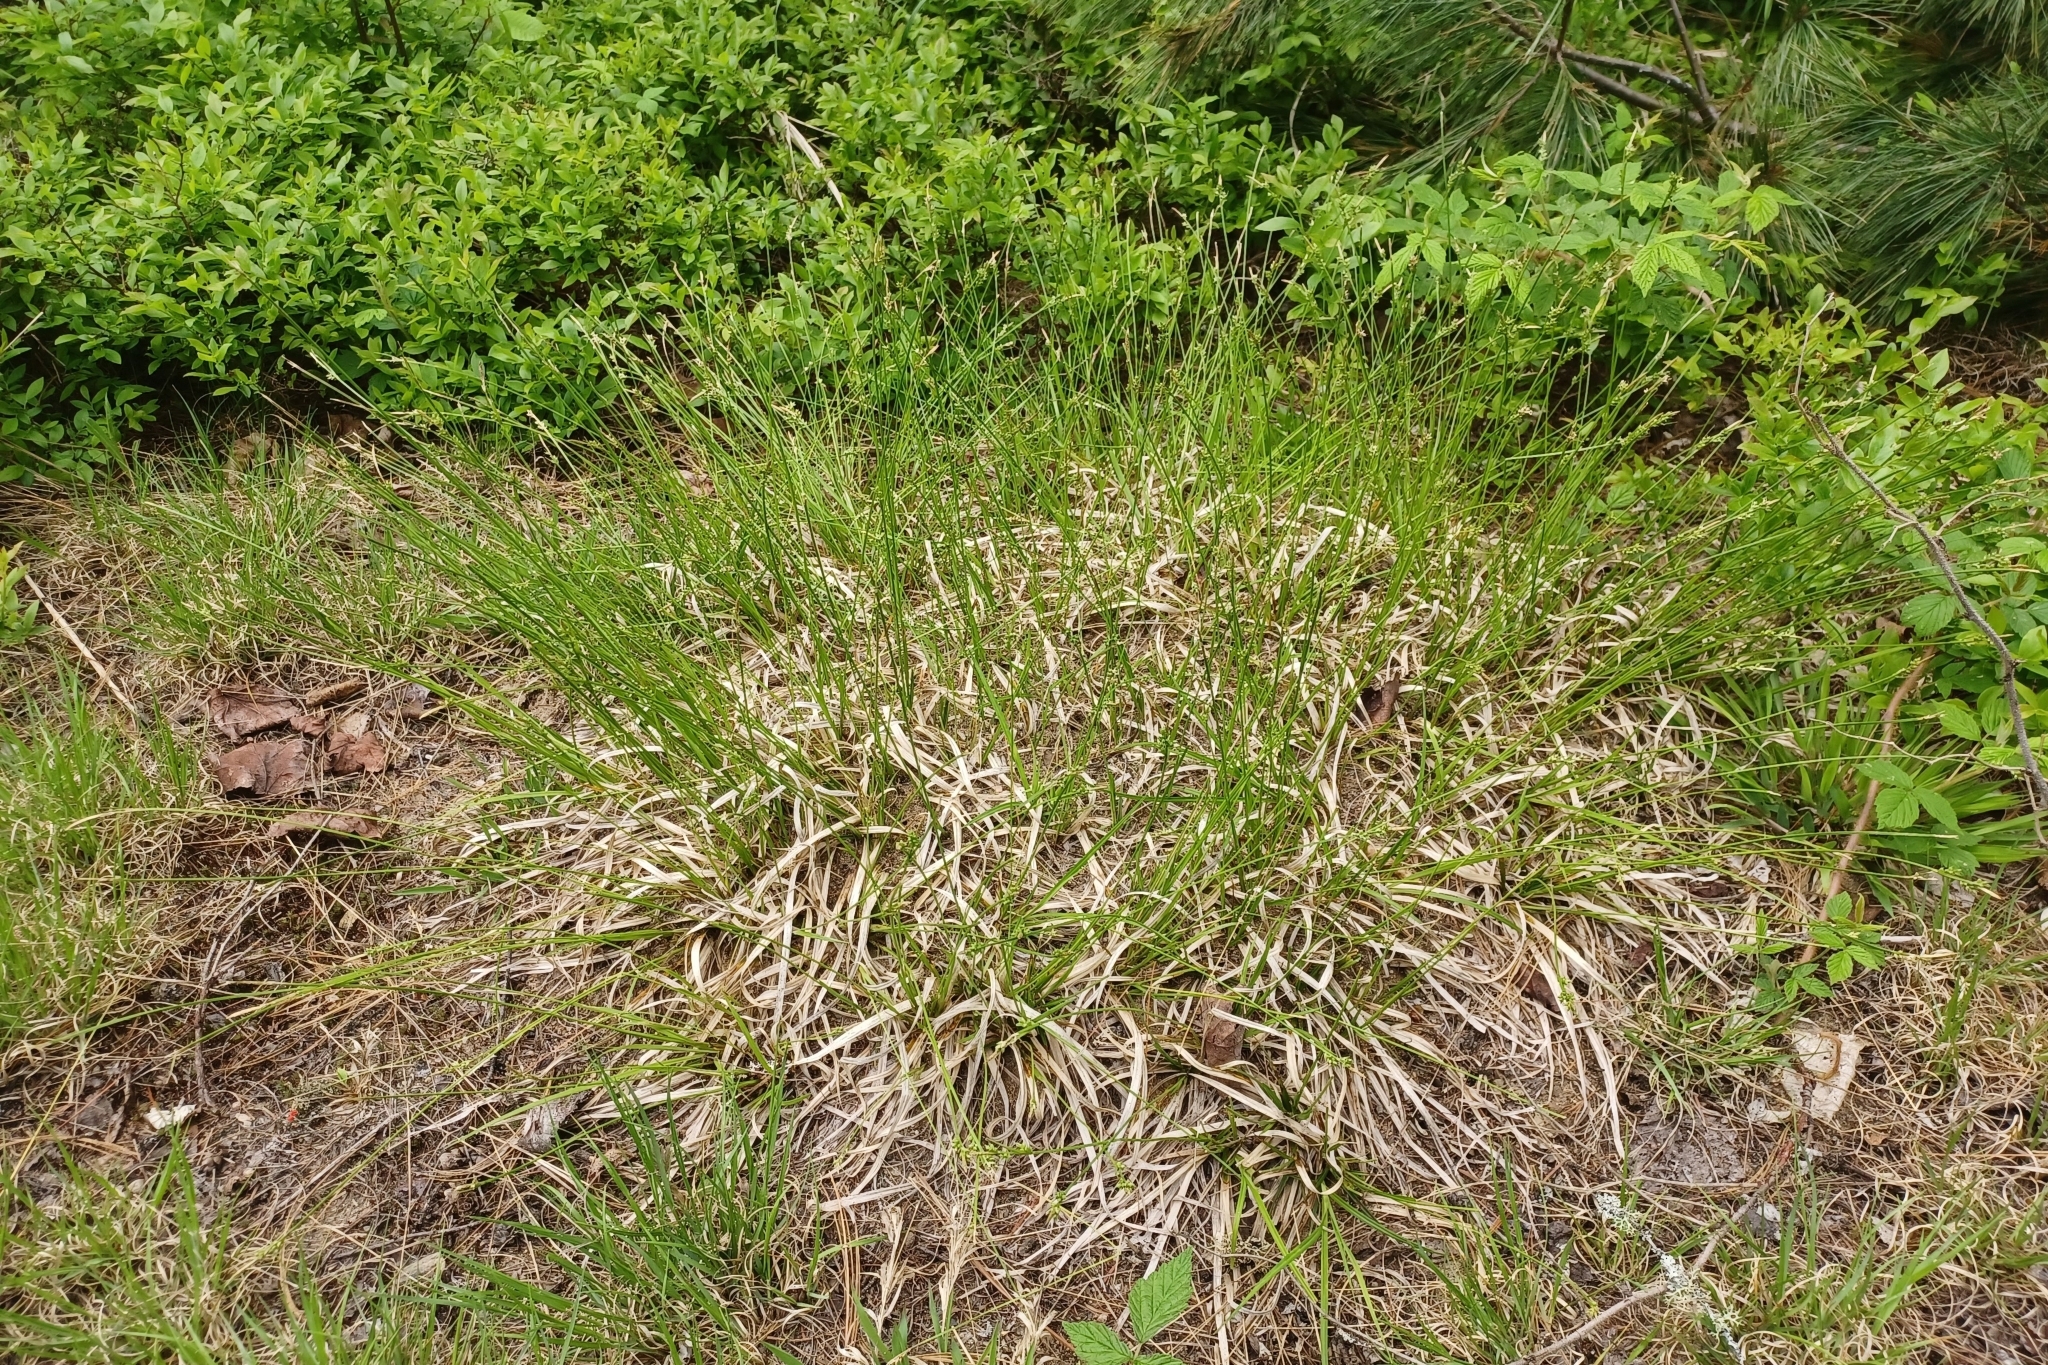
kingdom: Plantae
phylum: Tracheophyta
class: Liliopsida
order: Poales
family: Cyperaceae
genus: Carex
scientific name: Carex communis
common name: Colonial oak sedge
